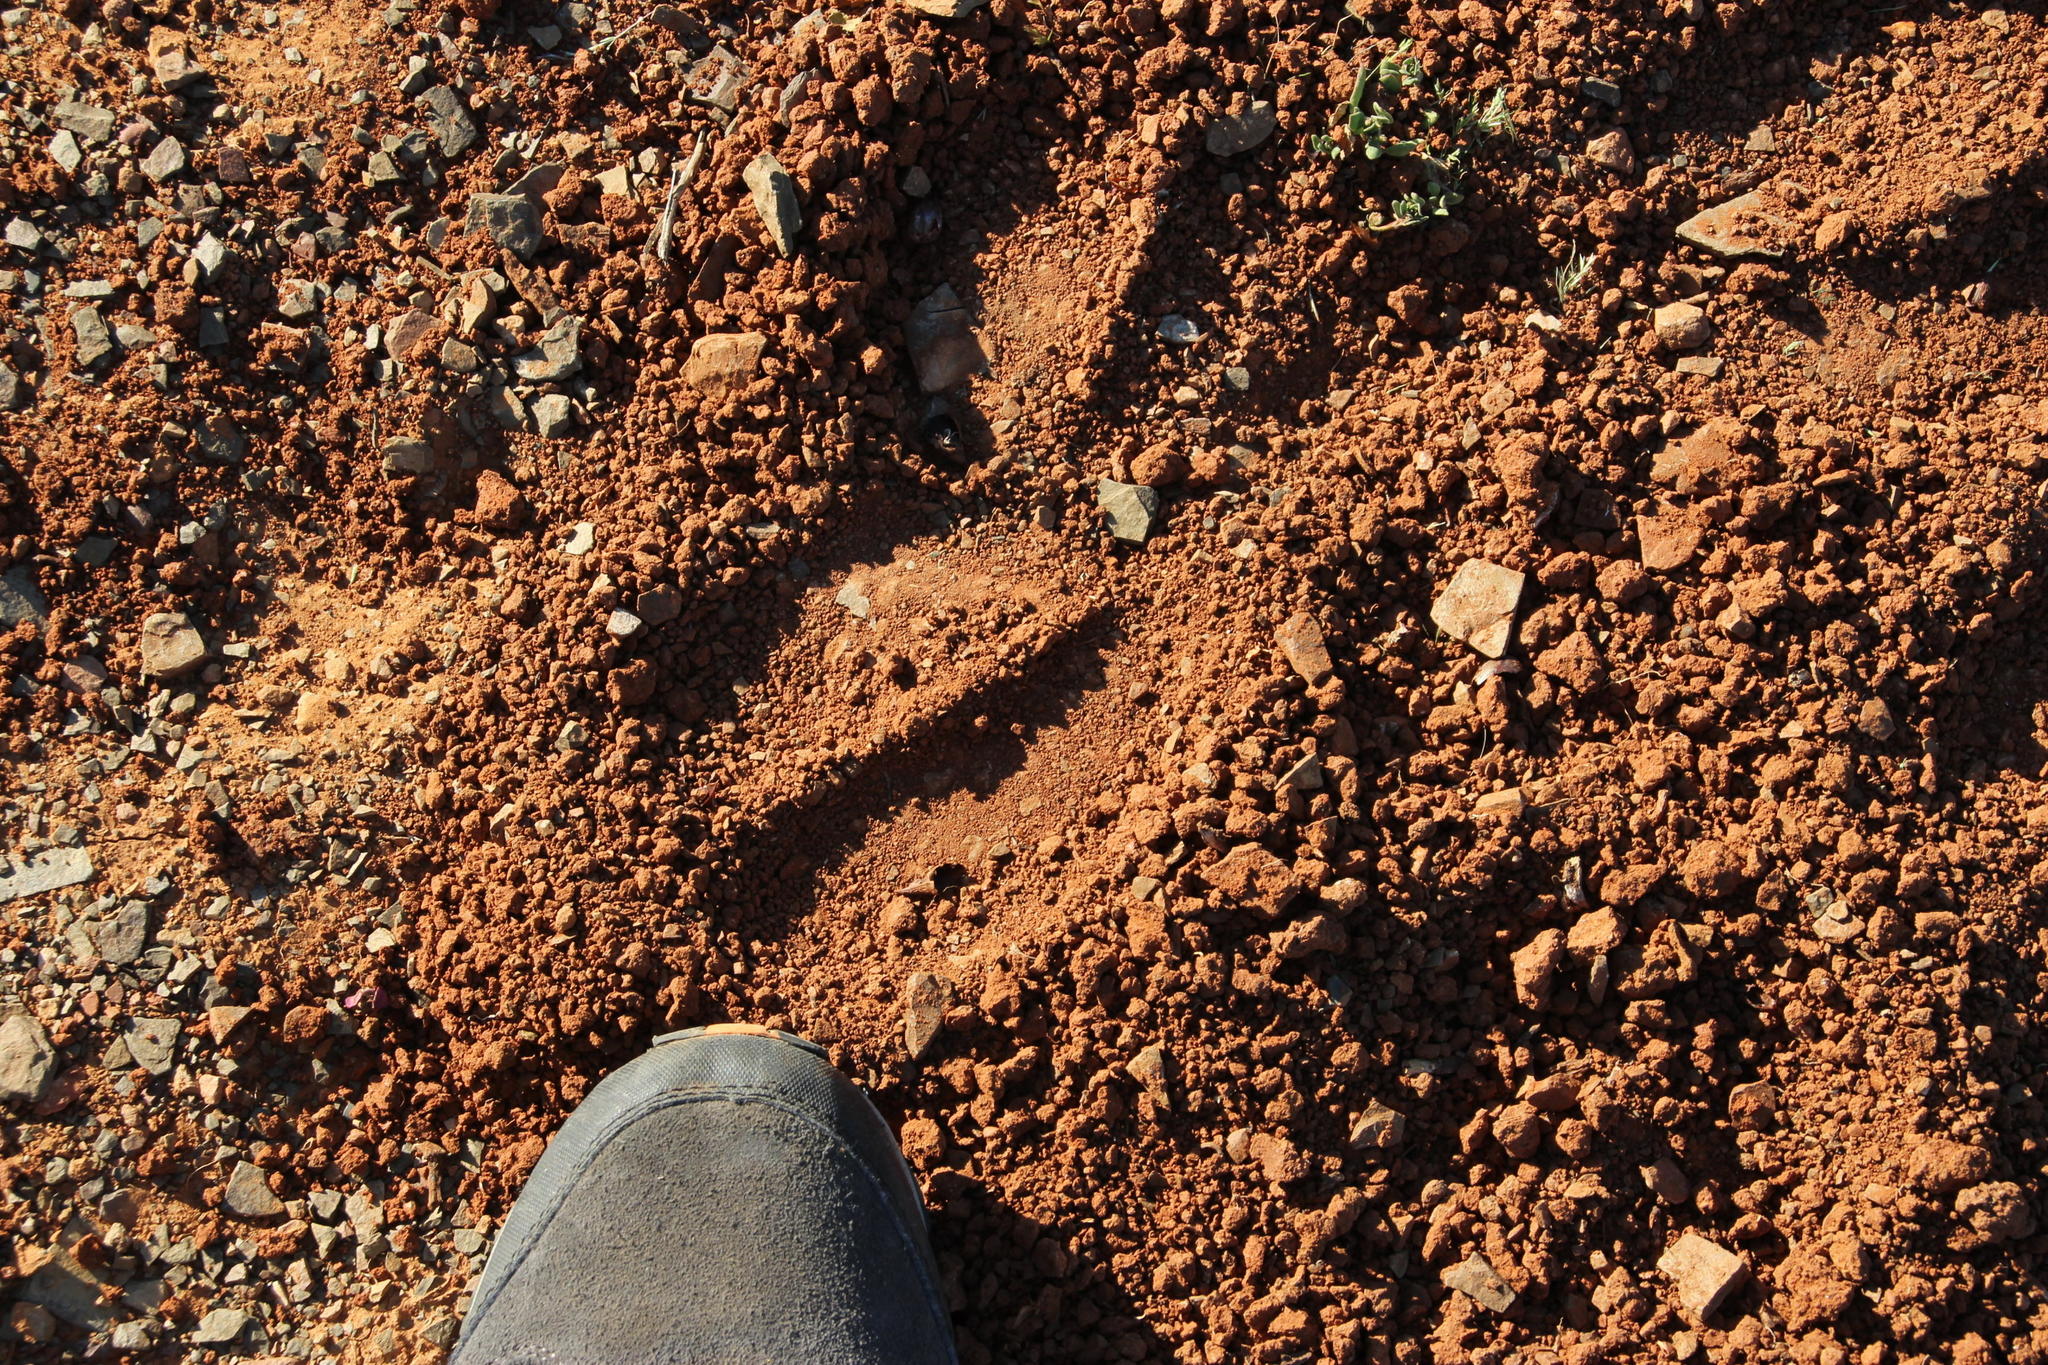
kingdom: Animalia
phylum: Chordata
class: Mammalia
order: Artiodactyla
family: Bovidae
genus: Taurotragus
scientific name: Taurotragus oryx
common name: Common eland
